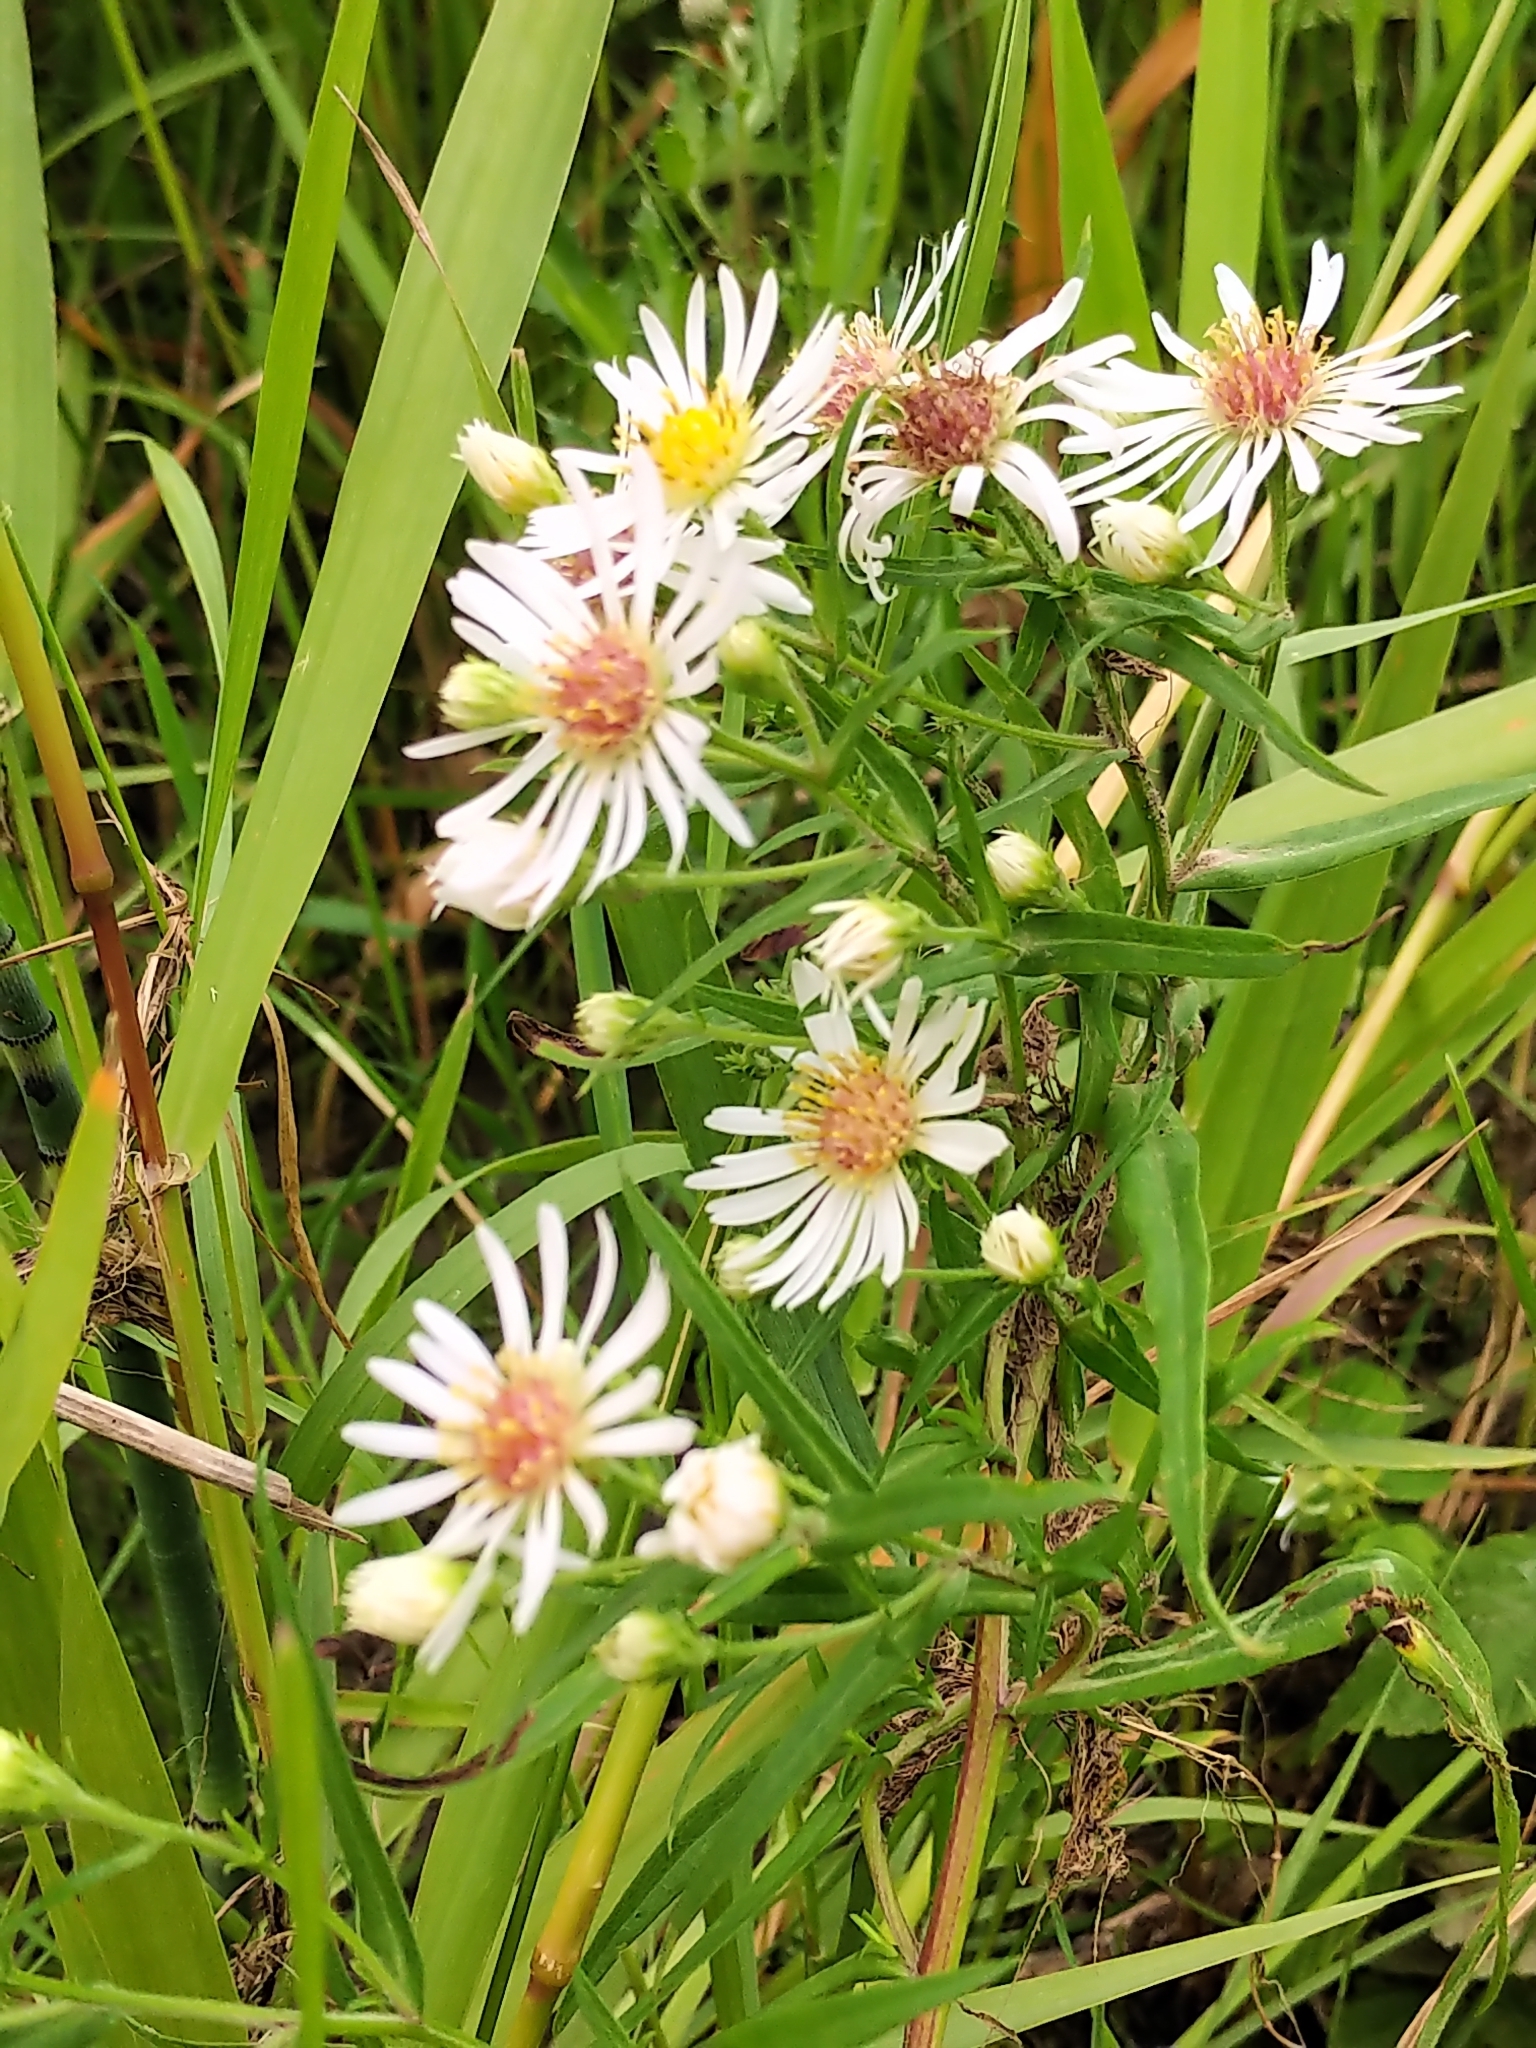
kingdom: Plantae
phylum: Tracheophyta
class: Magnoliopsida
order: Asterales
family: Asteraceae
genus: Symphyotrichum
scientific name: Symphyotrichum lanceolatum
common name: Panicled aster
